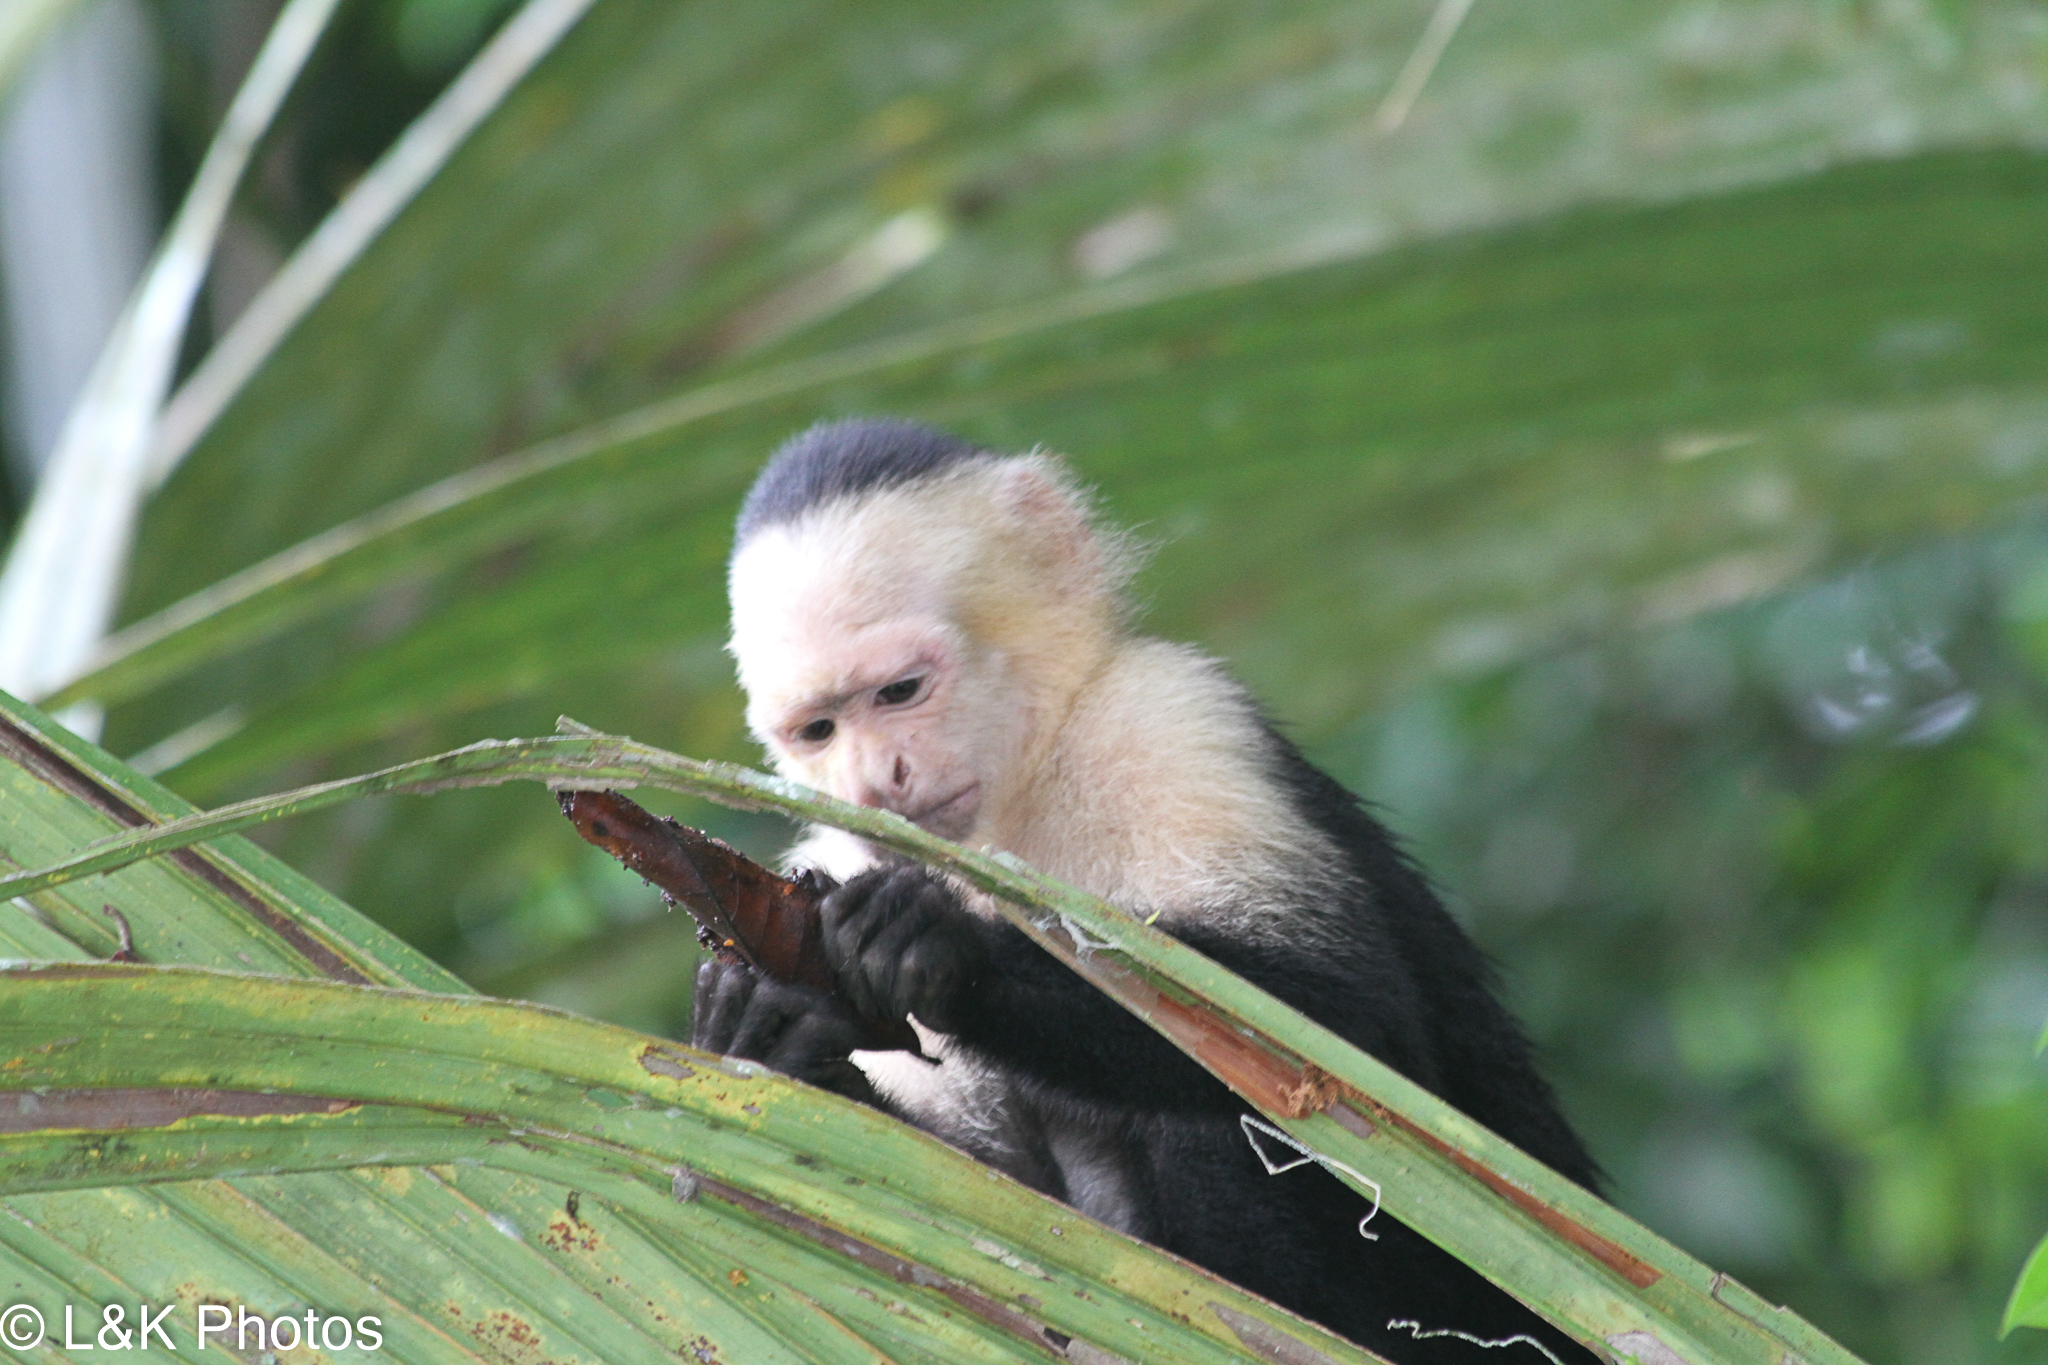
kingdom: Animalia
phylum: Chordata
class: Mammalia
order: Primates
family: Cebidae
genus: Cebus
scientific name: Cebus imitator
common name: Panamanian white-faced capuchin
